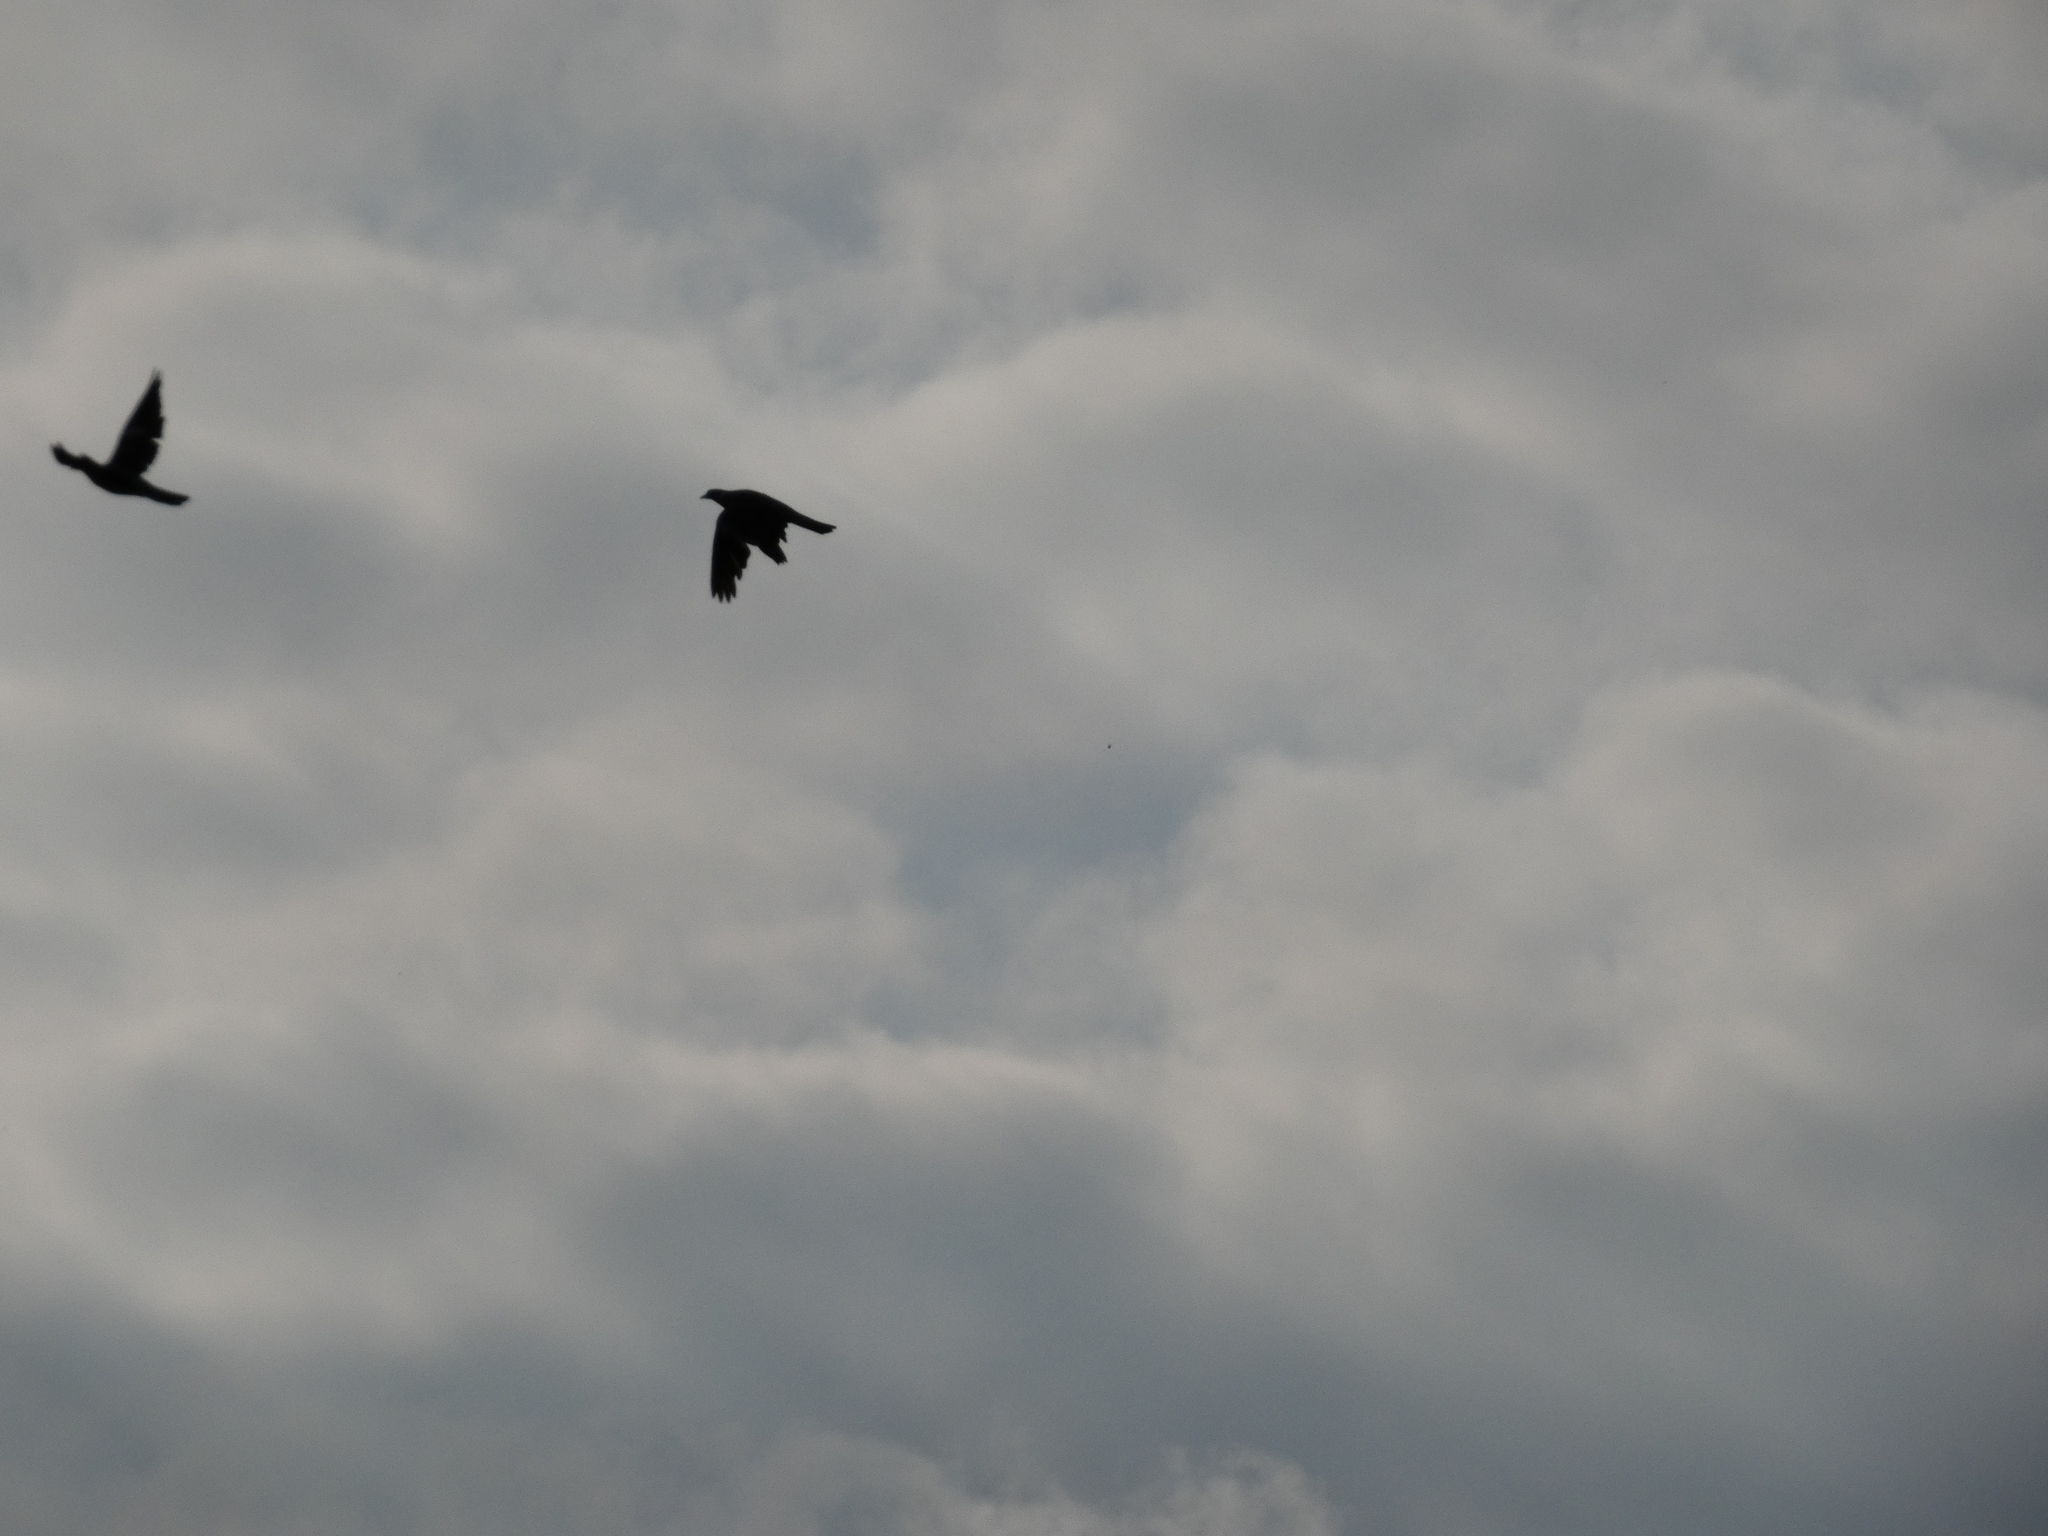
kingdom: Animalia
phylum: Chordata
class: Aves
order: Columbiformes
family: Columbidae
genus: Columba
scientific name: Columba palumbus
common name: Common wood pigeon
